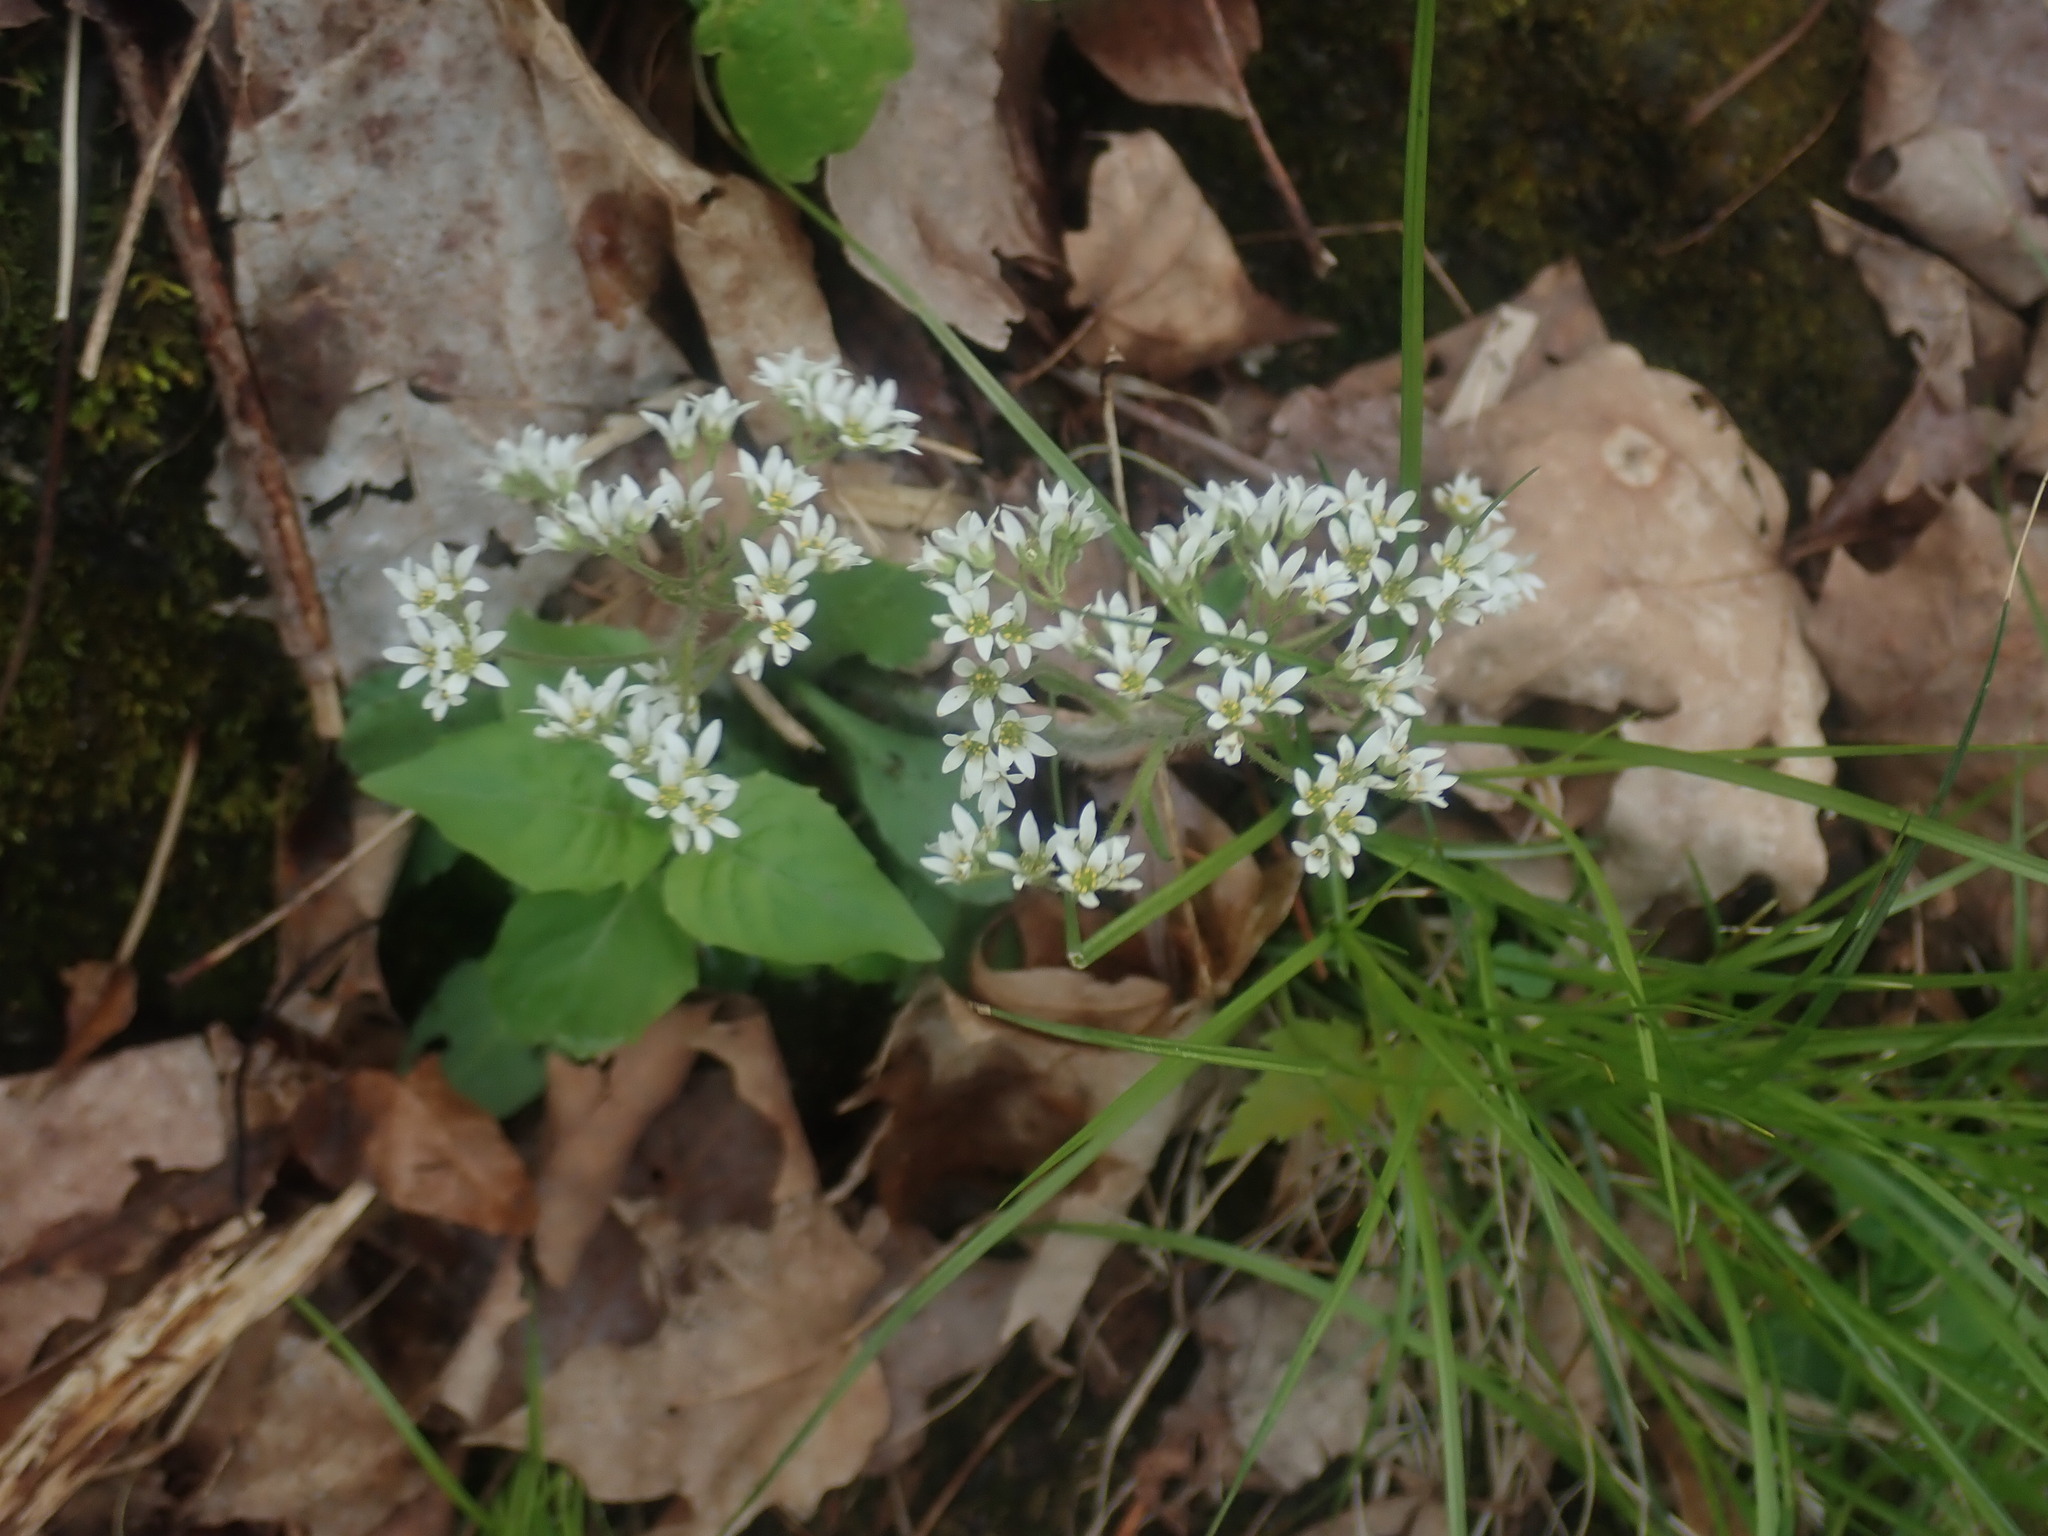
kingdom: Plantae
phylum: Tracheophyta
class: Magnoliopsida
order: Saxifragales
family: Saxifragaceae
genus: Micranthes
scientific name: Micranthes virginiensis
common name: Early saxifrage
